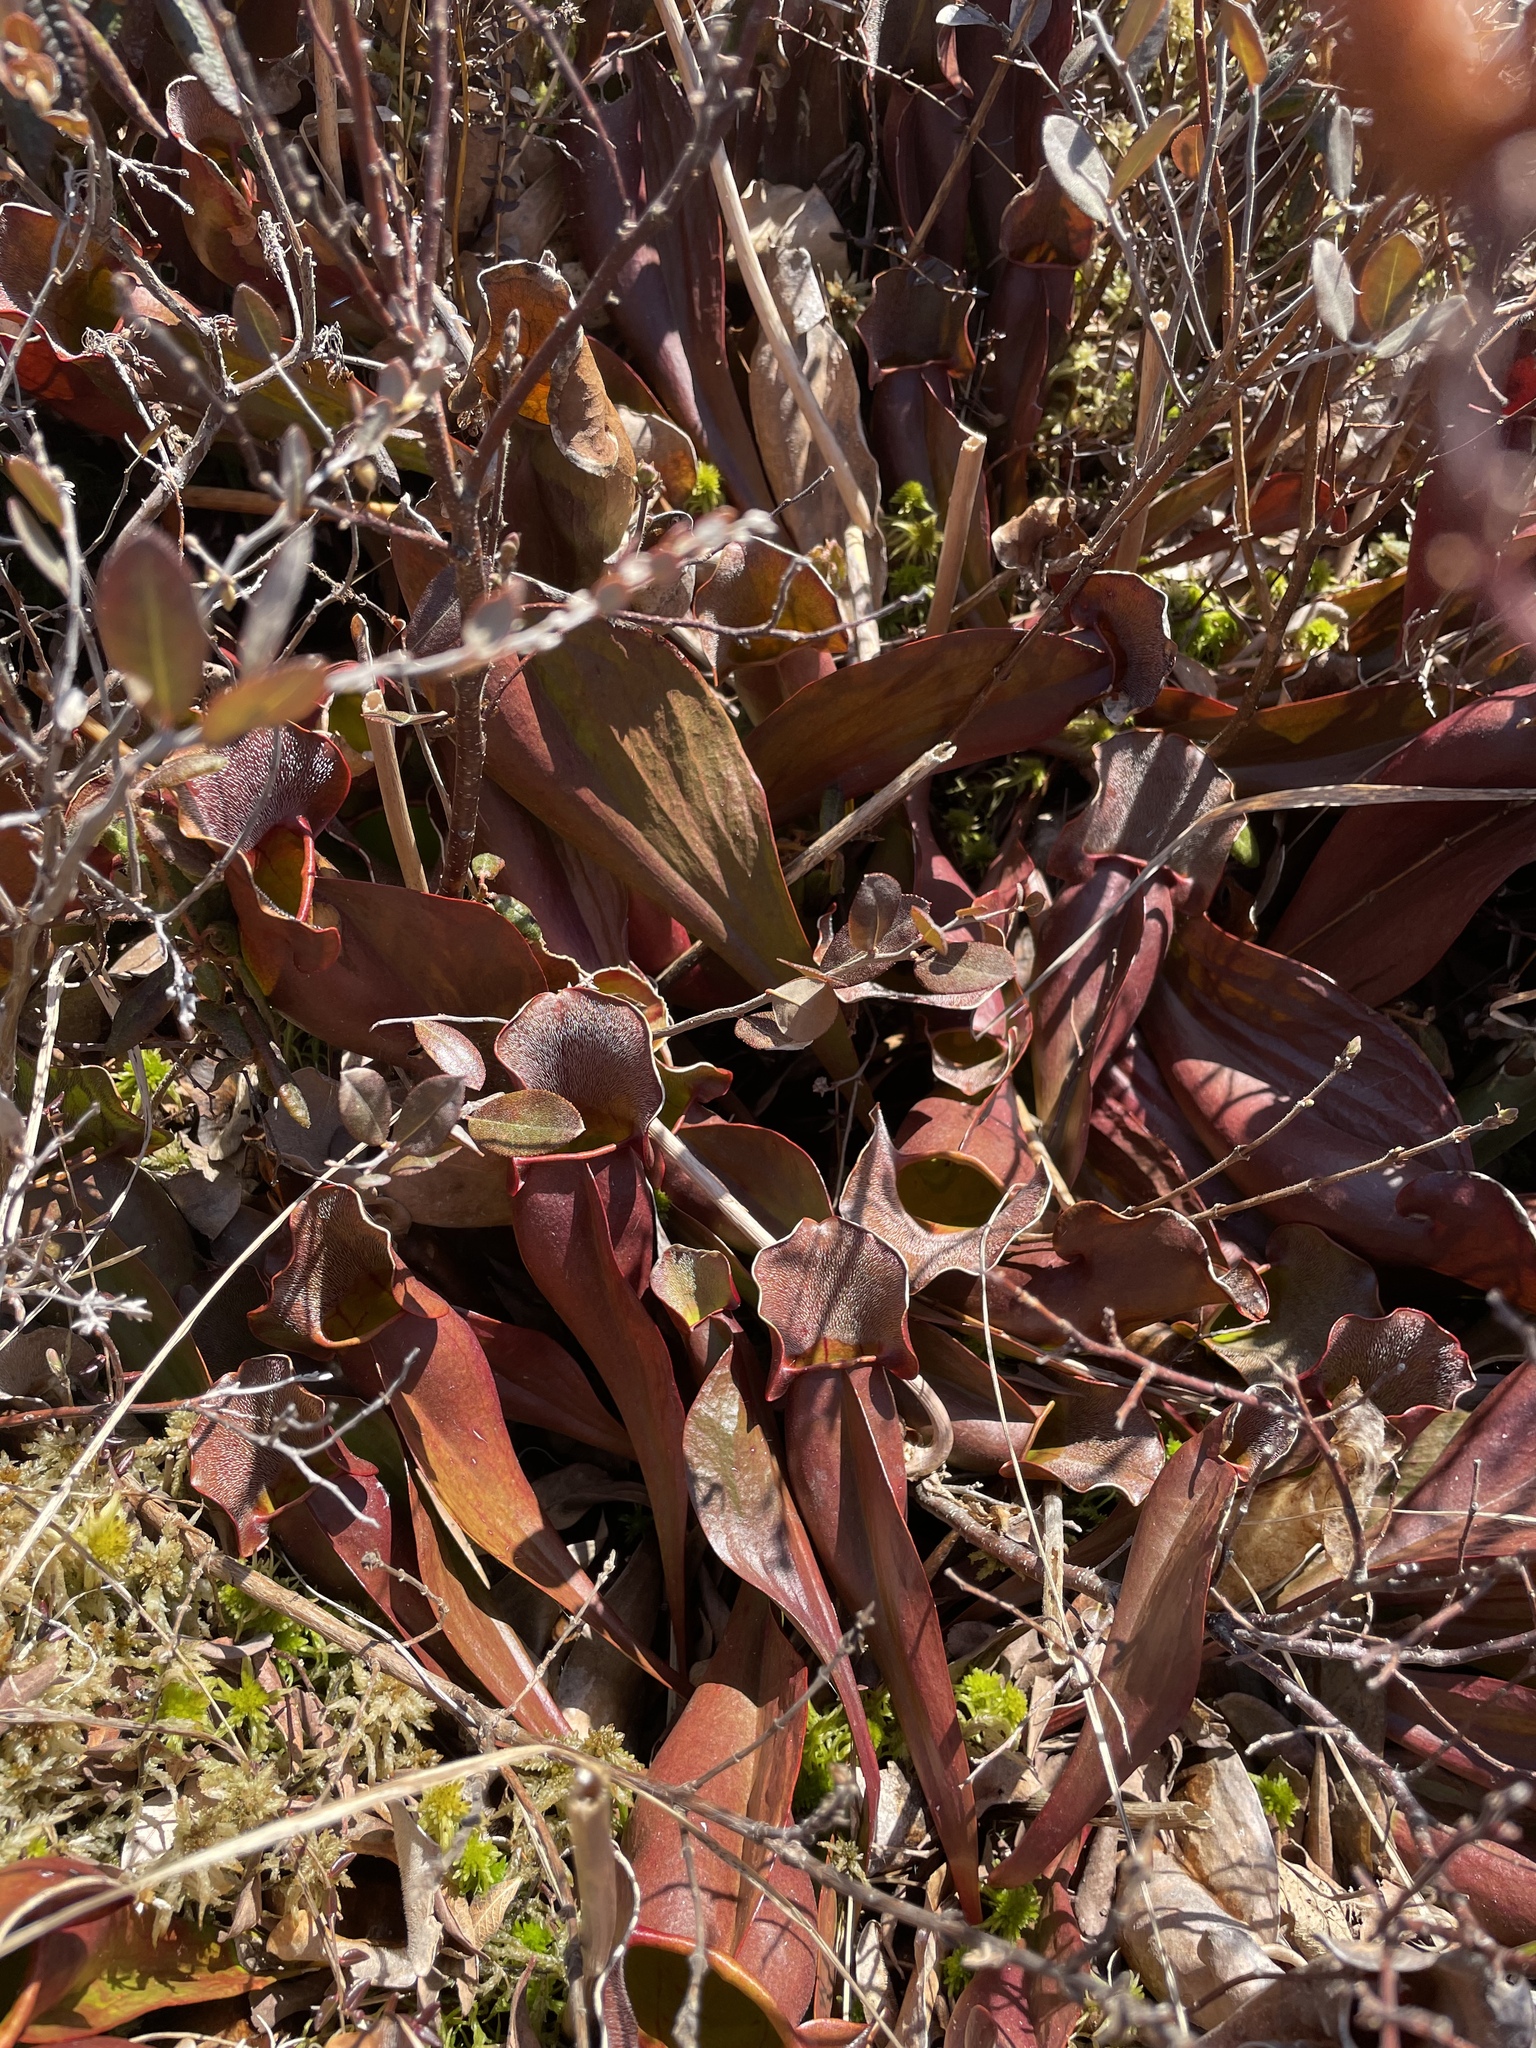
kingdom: Plantae
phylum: Tracheophyta
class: Magnoliopsida
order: Ericales
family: Sarraceniaceae
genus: Sarracenia
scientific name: Sarracenia purpurea
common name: Pitcherplant
